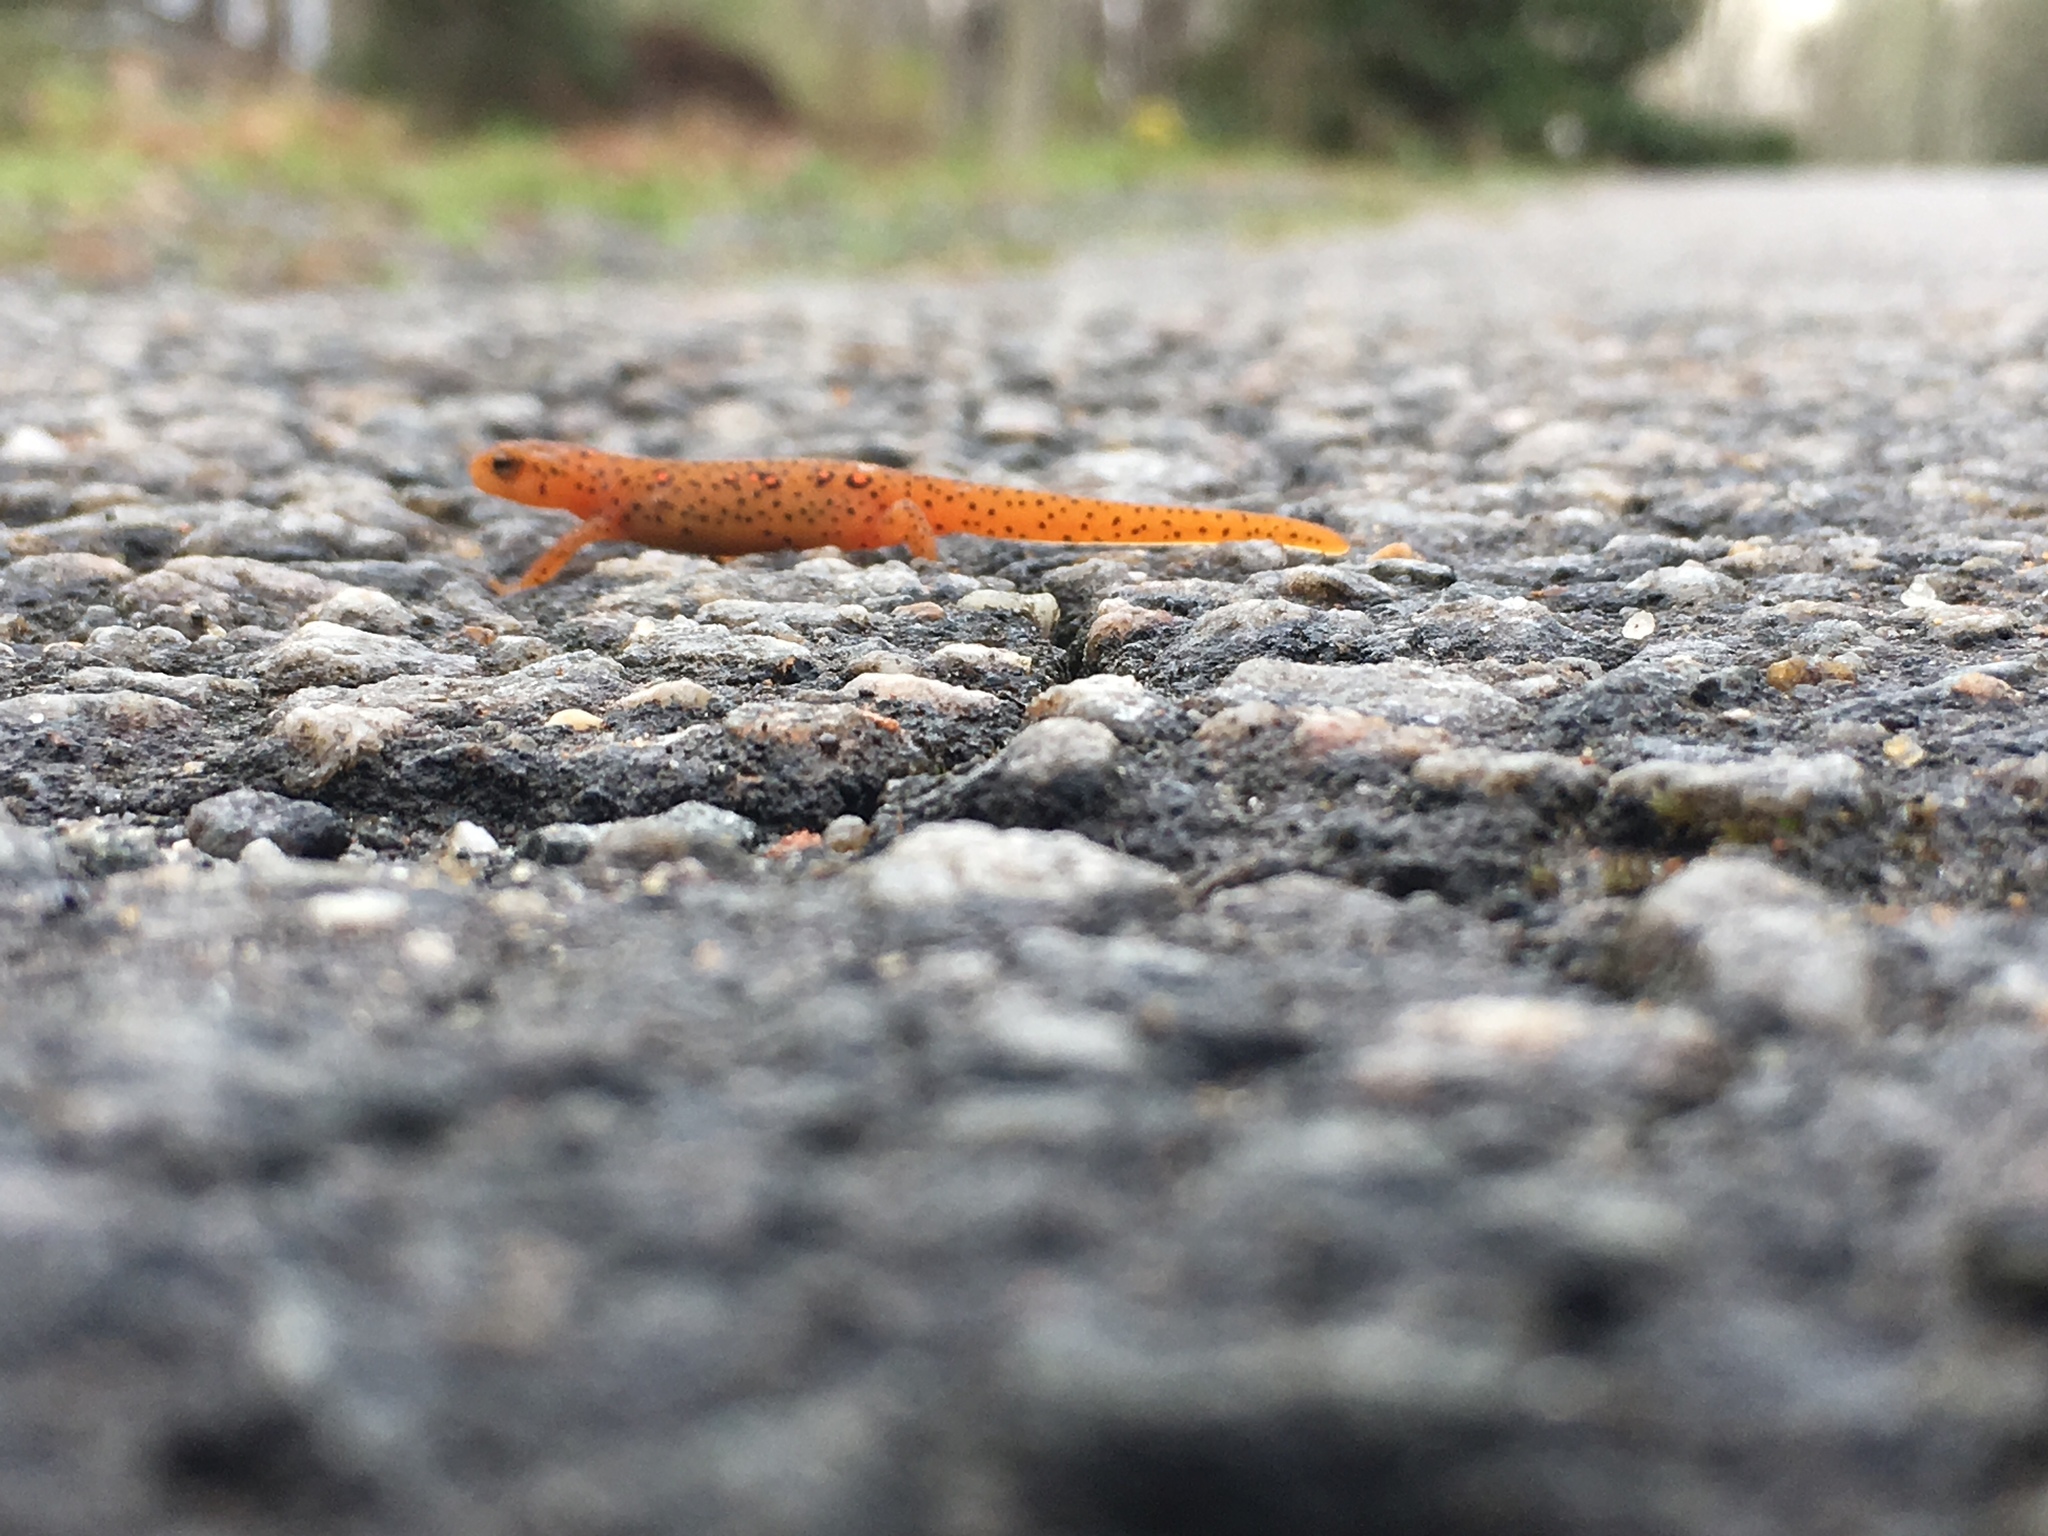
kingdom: Animalia
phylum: Chordata
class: Amphibia
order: Caudata
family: Salamandridae
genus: Notophthalmus
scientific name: Notophthalmus viridescens
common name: Eastern newt
